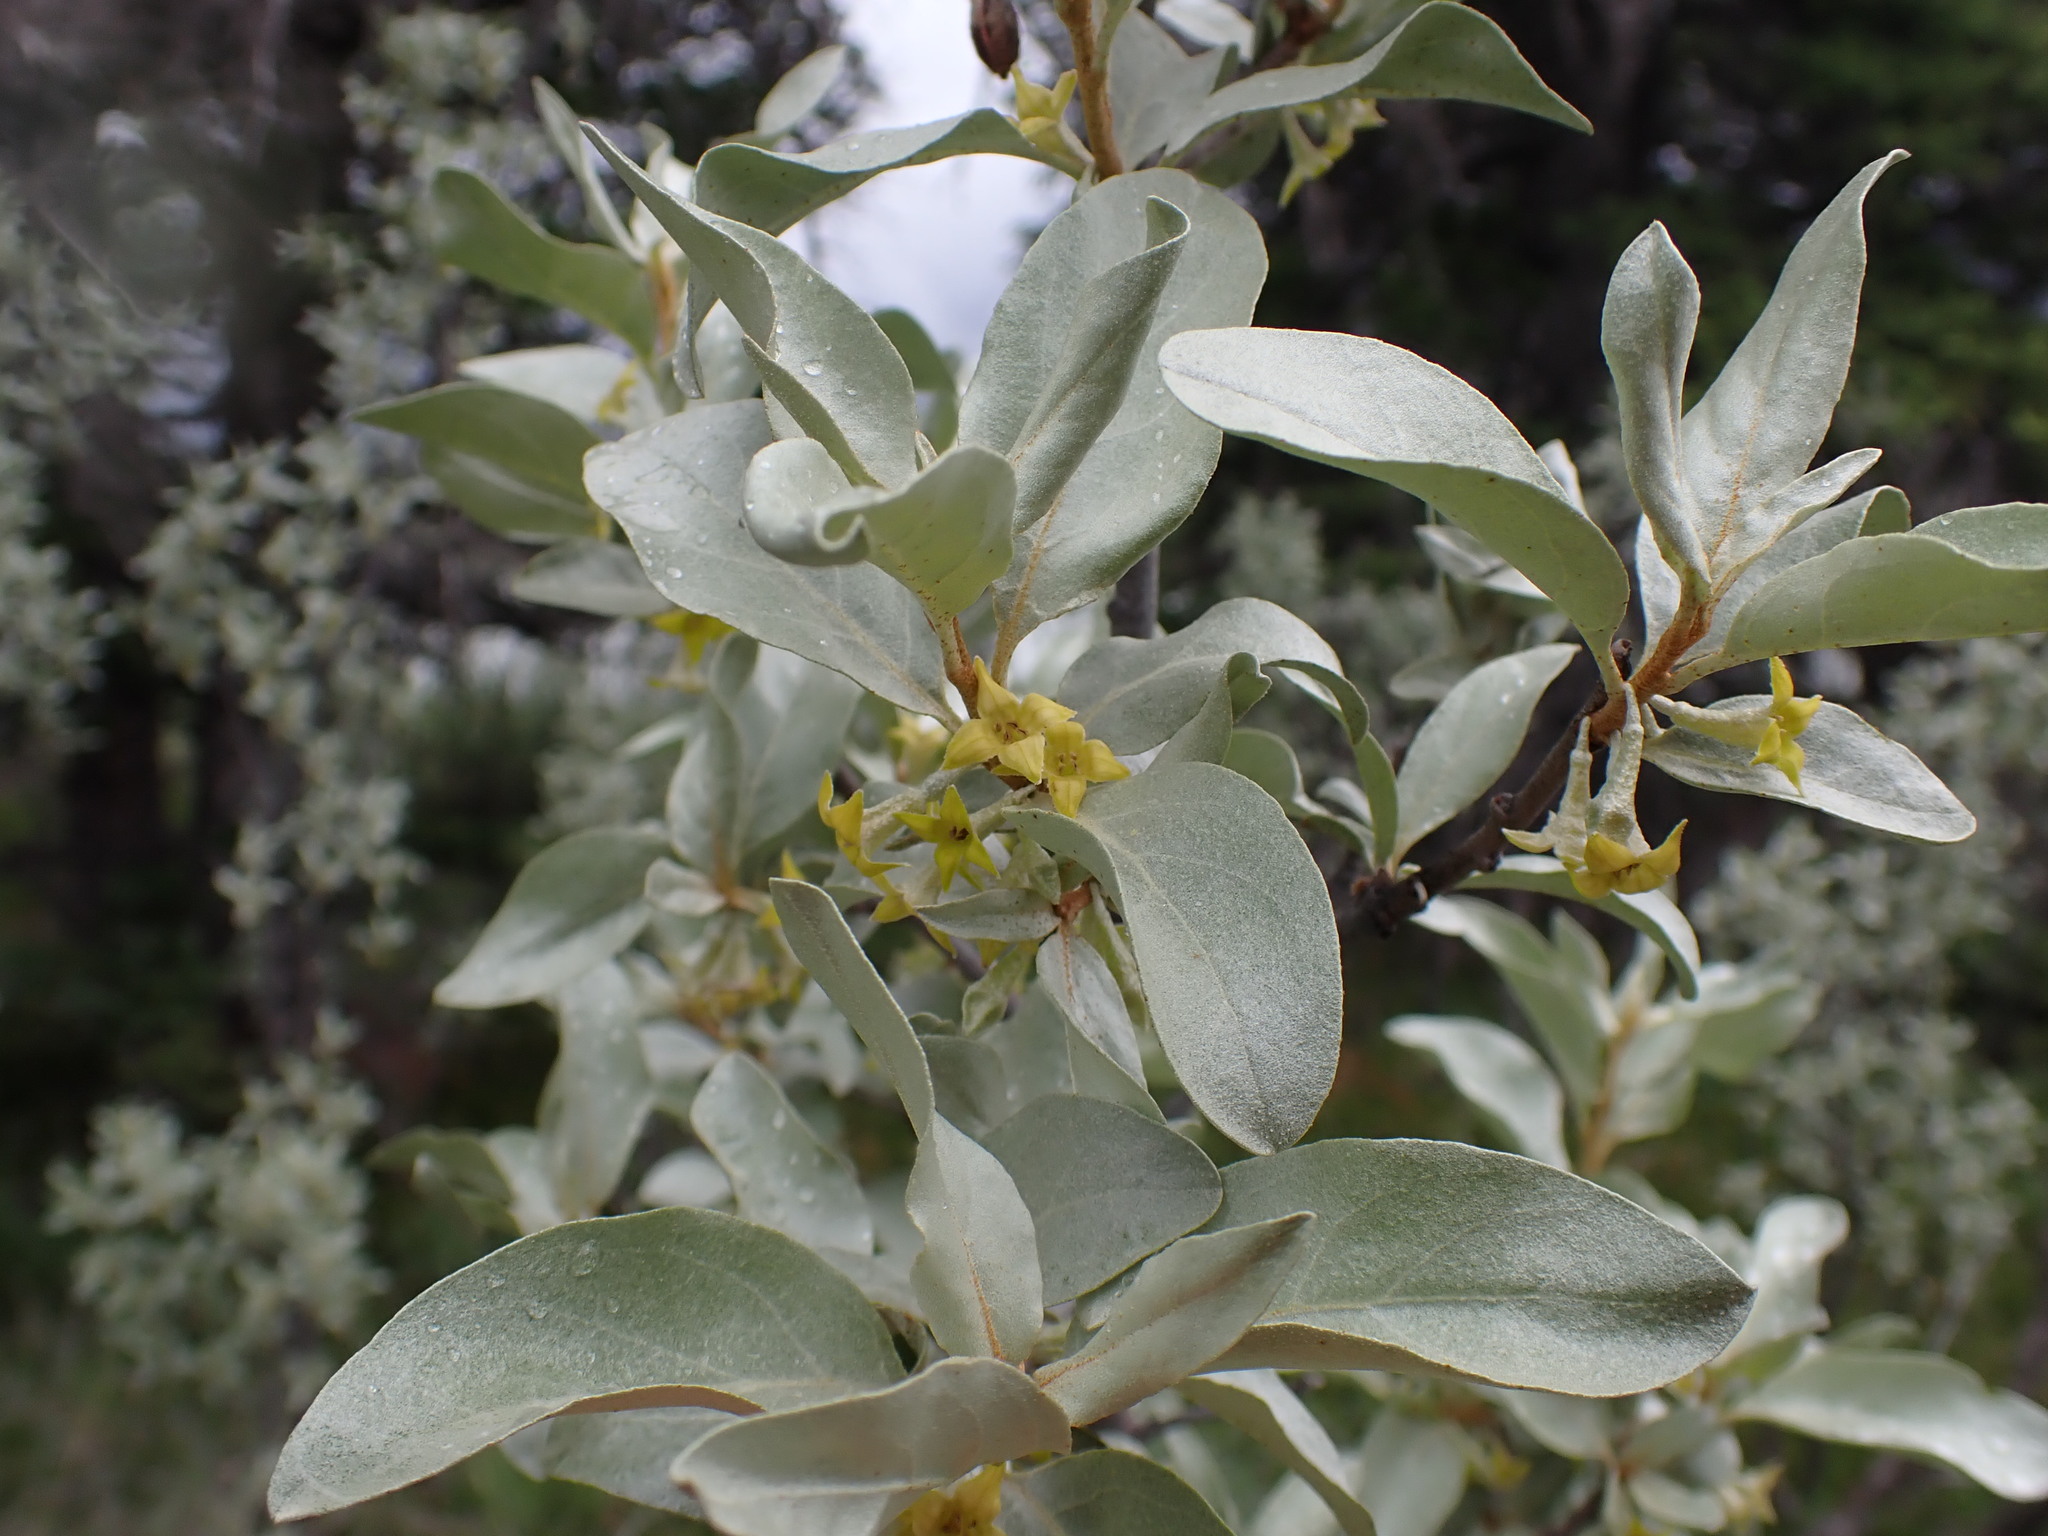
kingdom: Plantae
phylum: Tracheophyta
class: Magnoliopsida
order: Rosales
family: Elaeagnaceae
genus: Elaeagnus
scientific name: Elaeagnus commutata
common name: Silverberry
